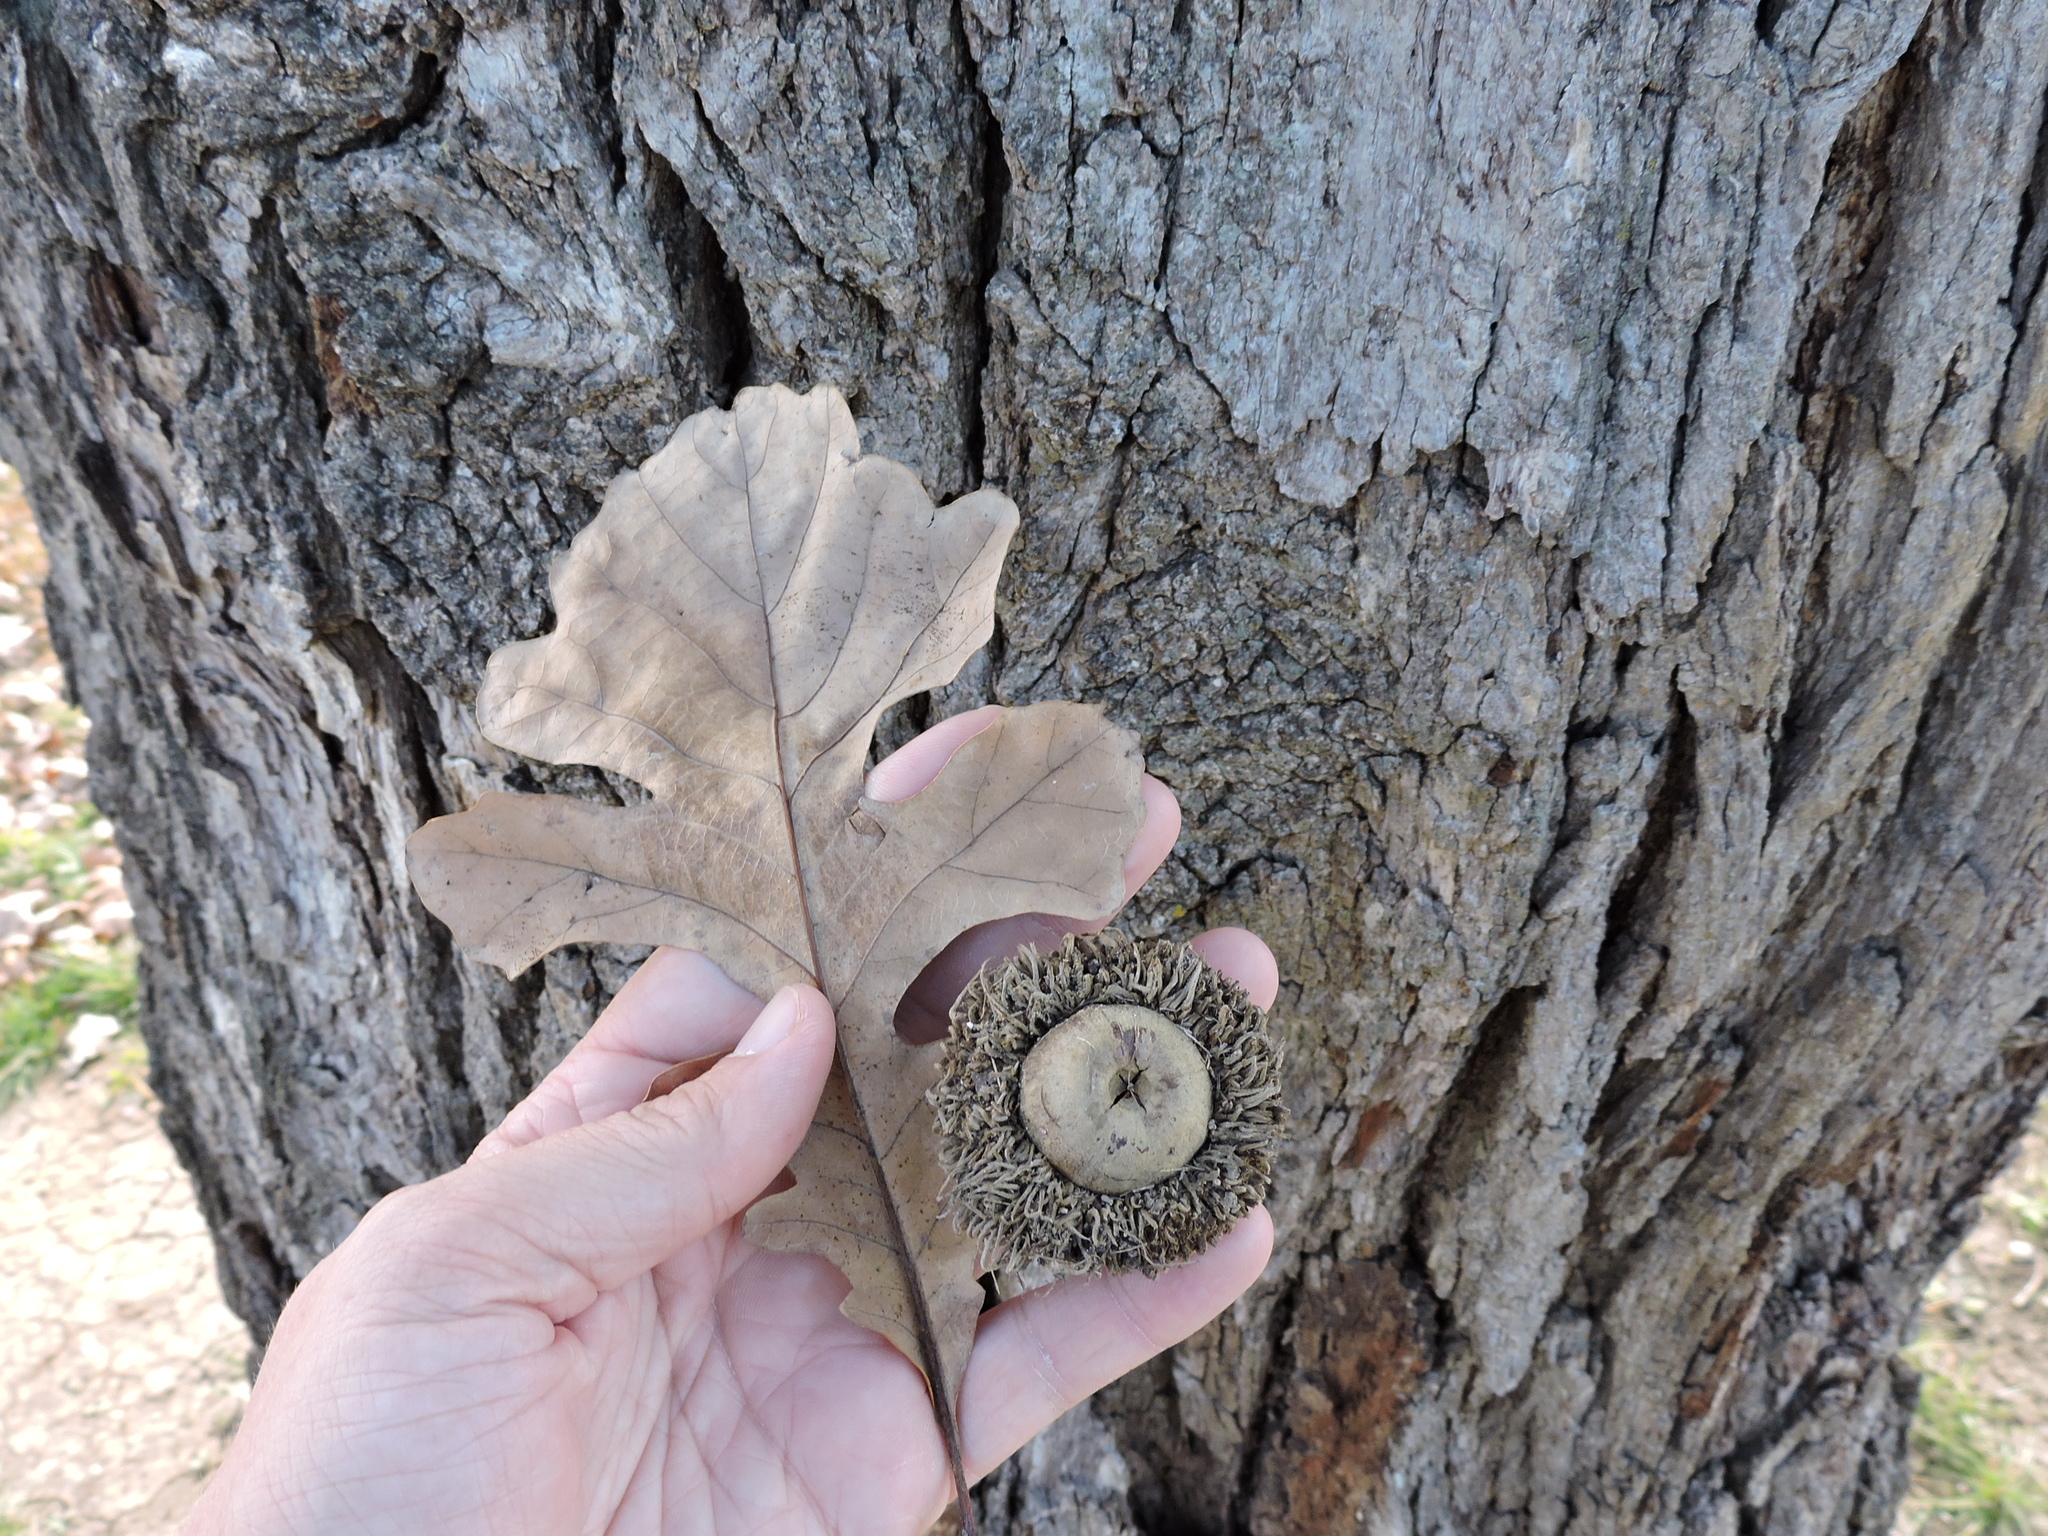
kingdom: Plantae
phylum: Tracheophyta
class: Magnoliopsida
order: Fagales
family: Fagaceae
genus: Quercus
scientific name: Quercus macrocarpa
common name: Bur oak
